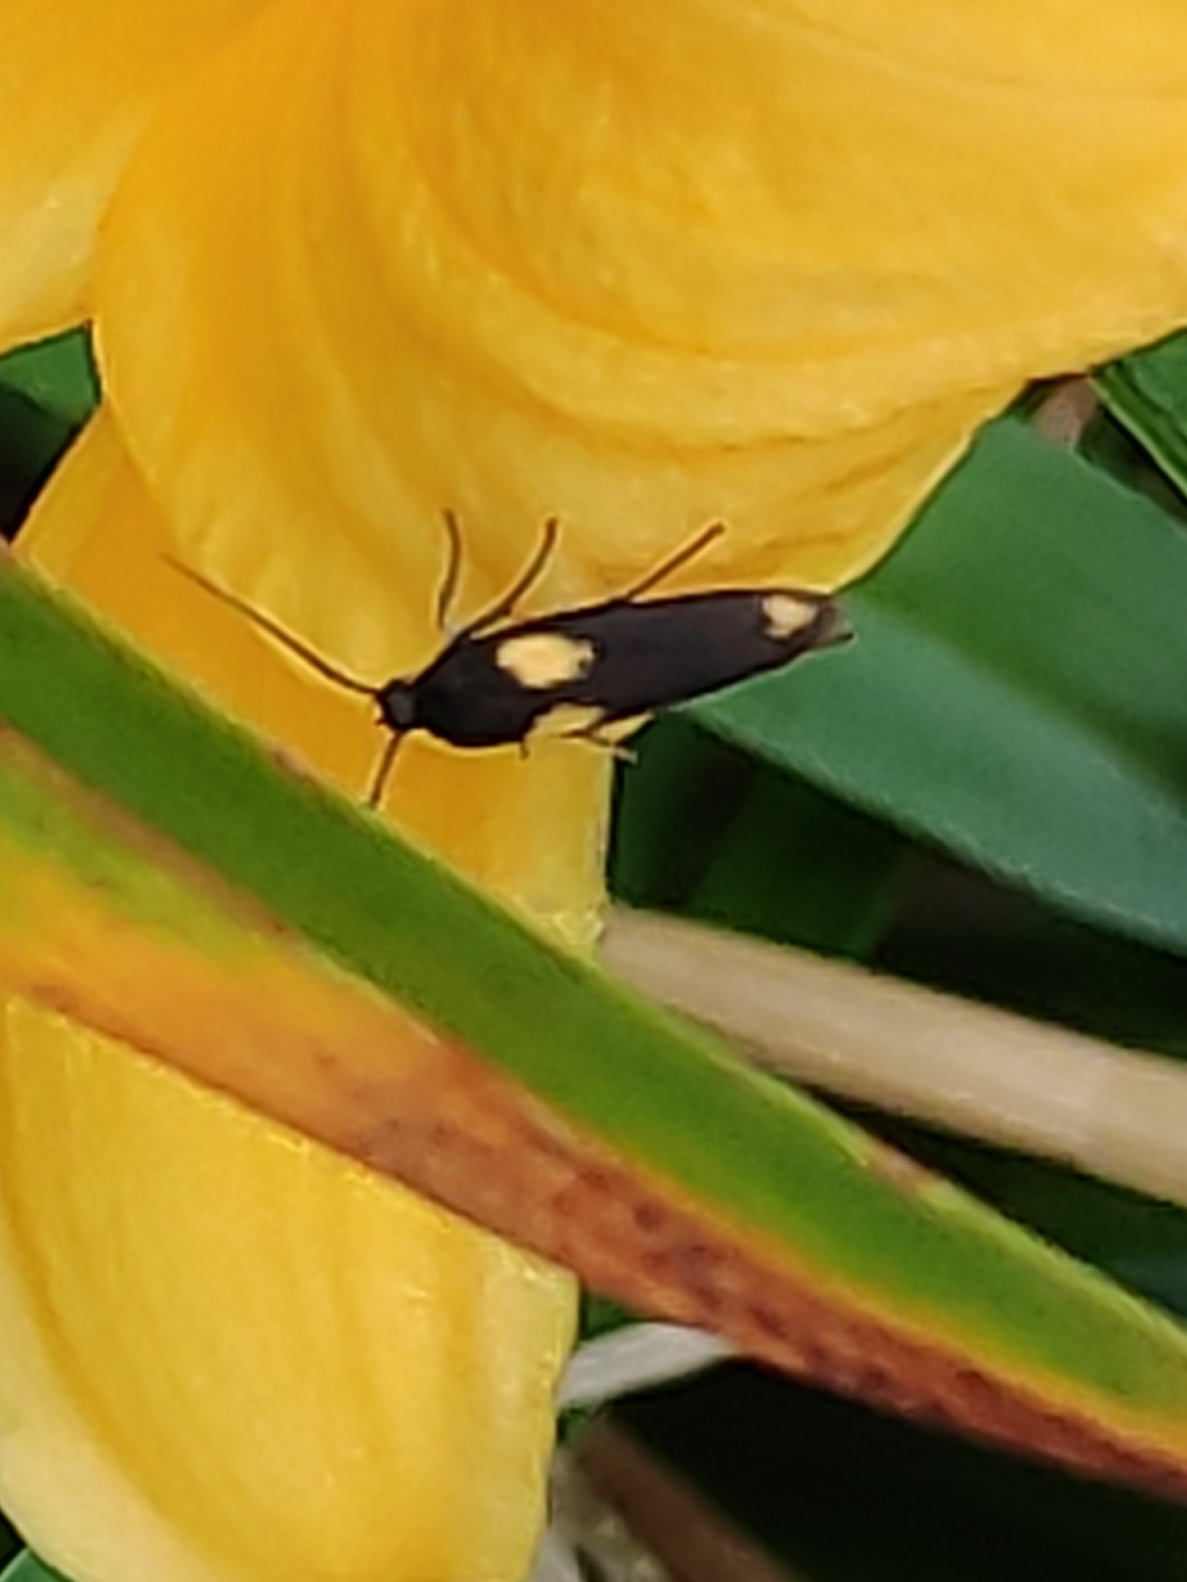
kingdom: Animalia
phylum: Arthropoda
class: Insecta
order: Lepidoptera
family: Scythrididae
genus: Scythris
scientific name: Scythris sinensis
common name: Kentish owlet
